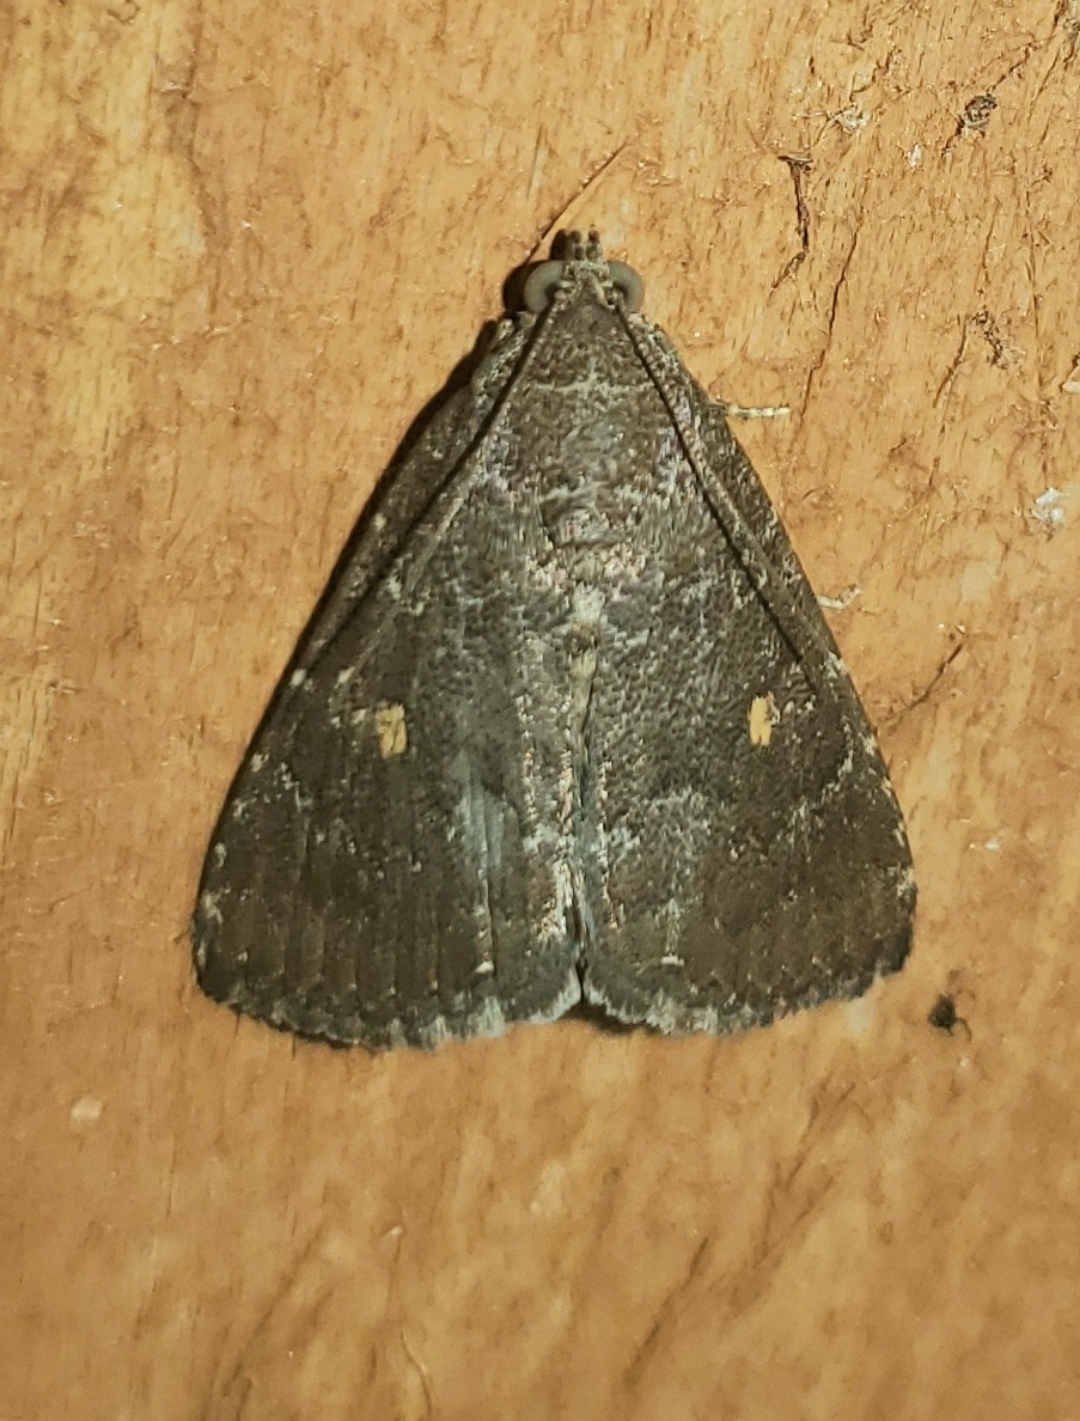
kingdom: Animalia
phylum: Arthropoda
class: Insecta
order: Lepidoptera
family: Noctuidae
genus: Amyna
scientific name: Amyna stricta
